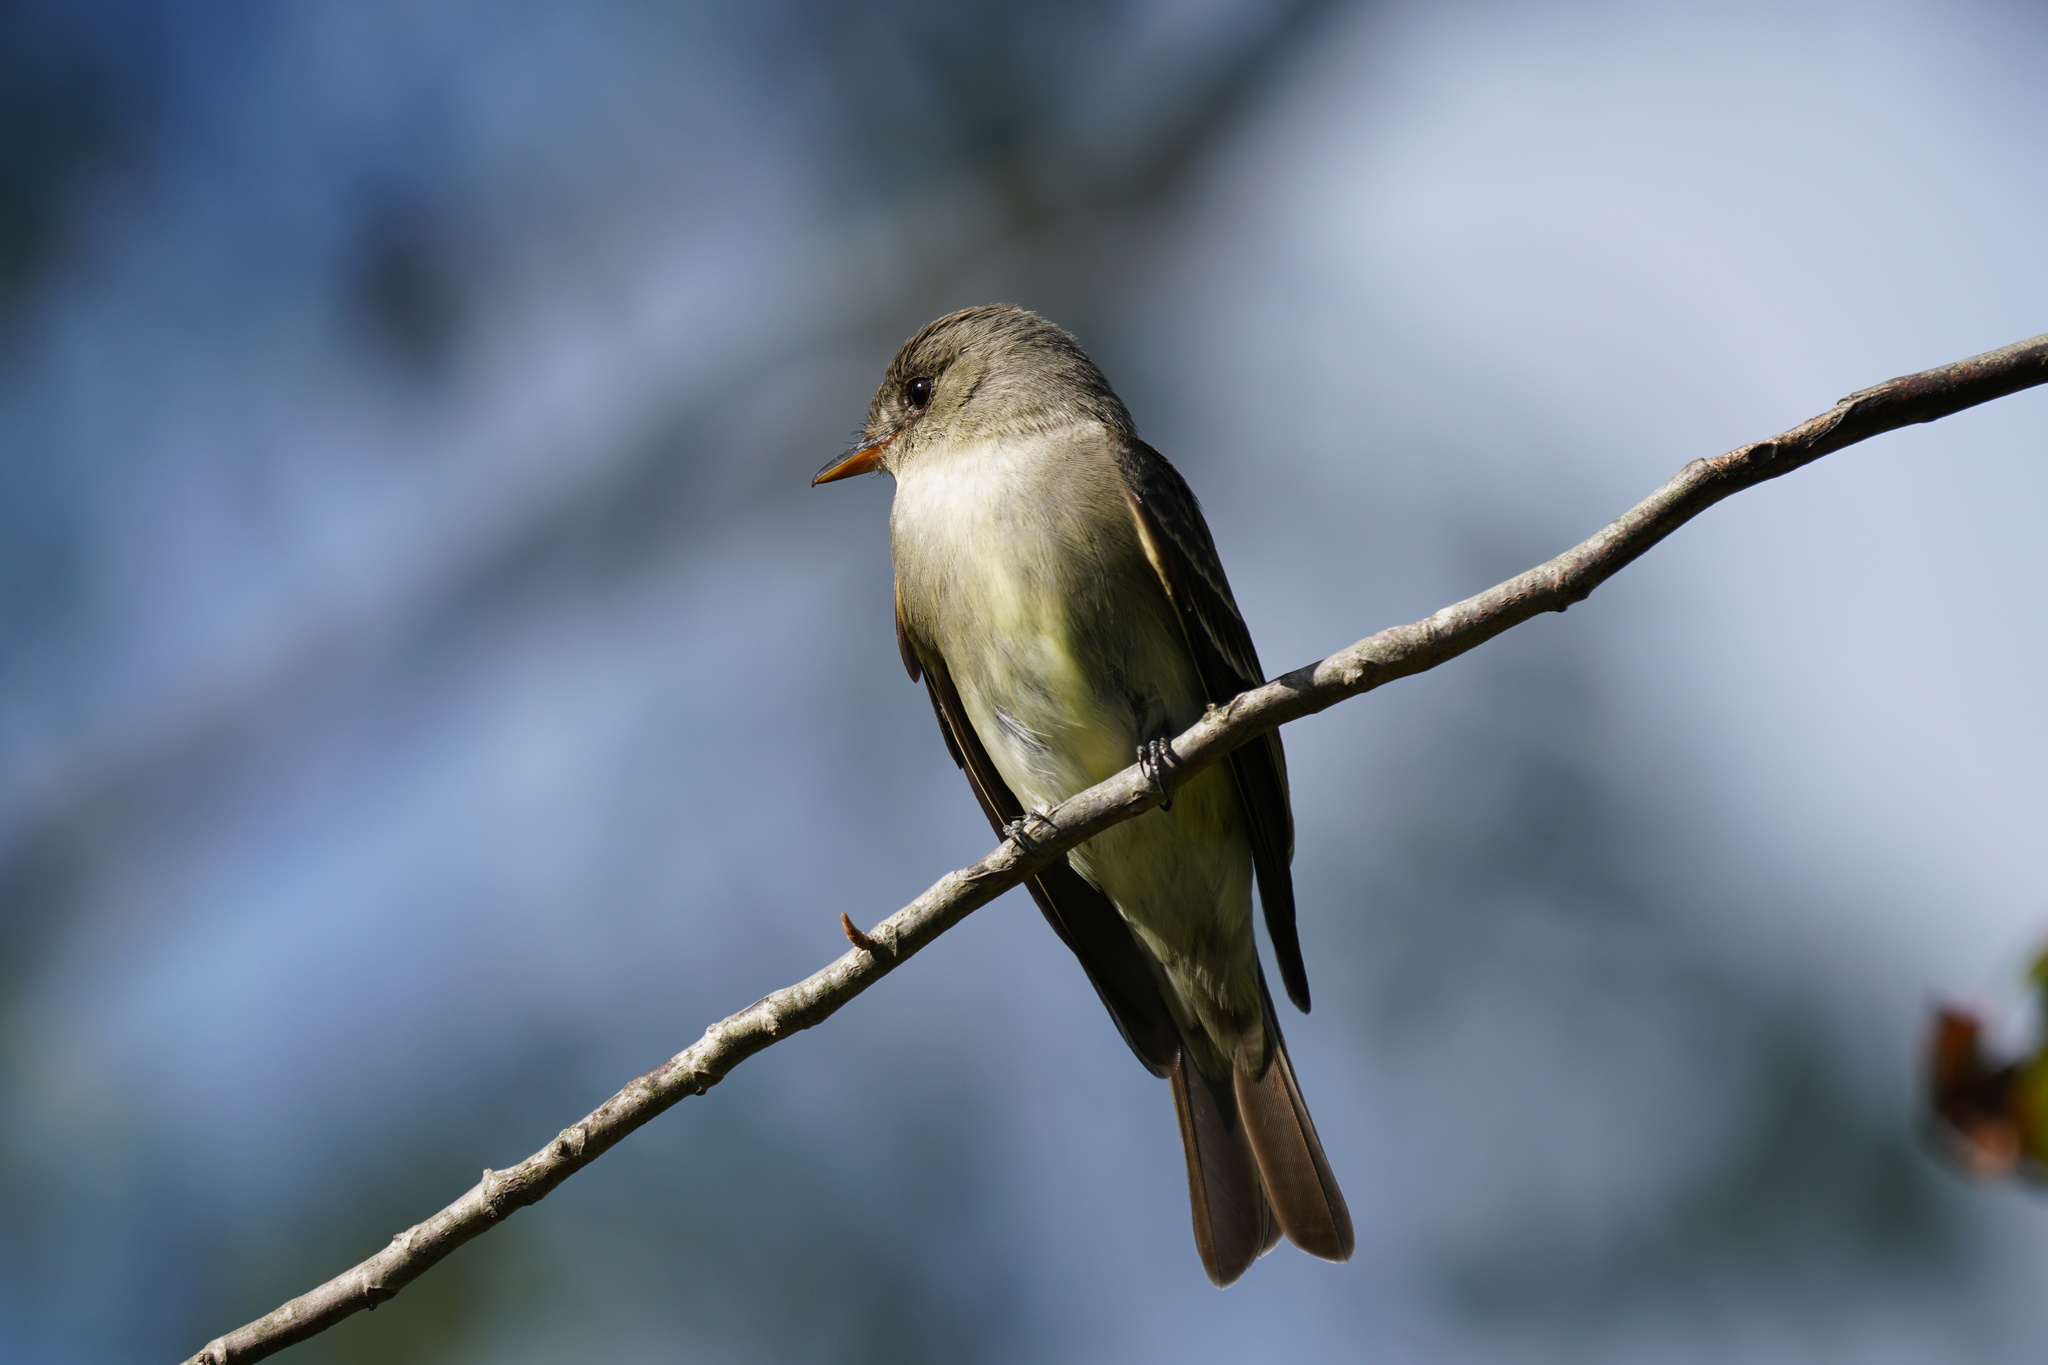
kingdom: Animalia
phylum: Chordata
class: Aves
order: Passeriformes
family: Tyrannidae
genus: Contopus
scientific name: Contopus virens
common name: Eastern wood-pewee
